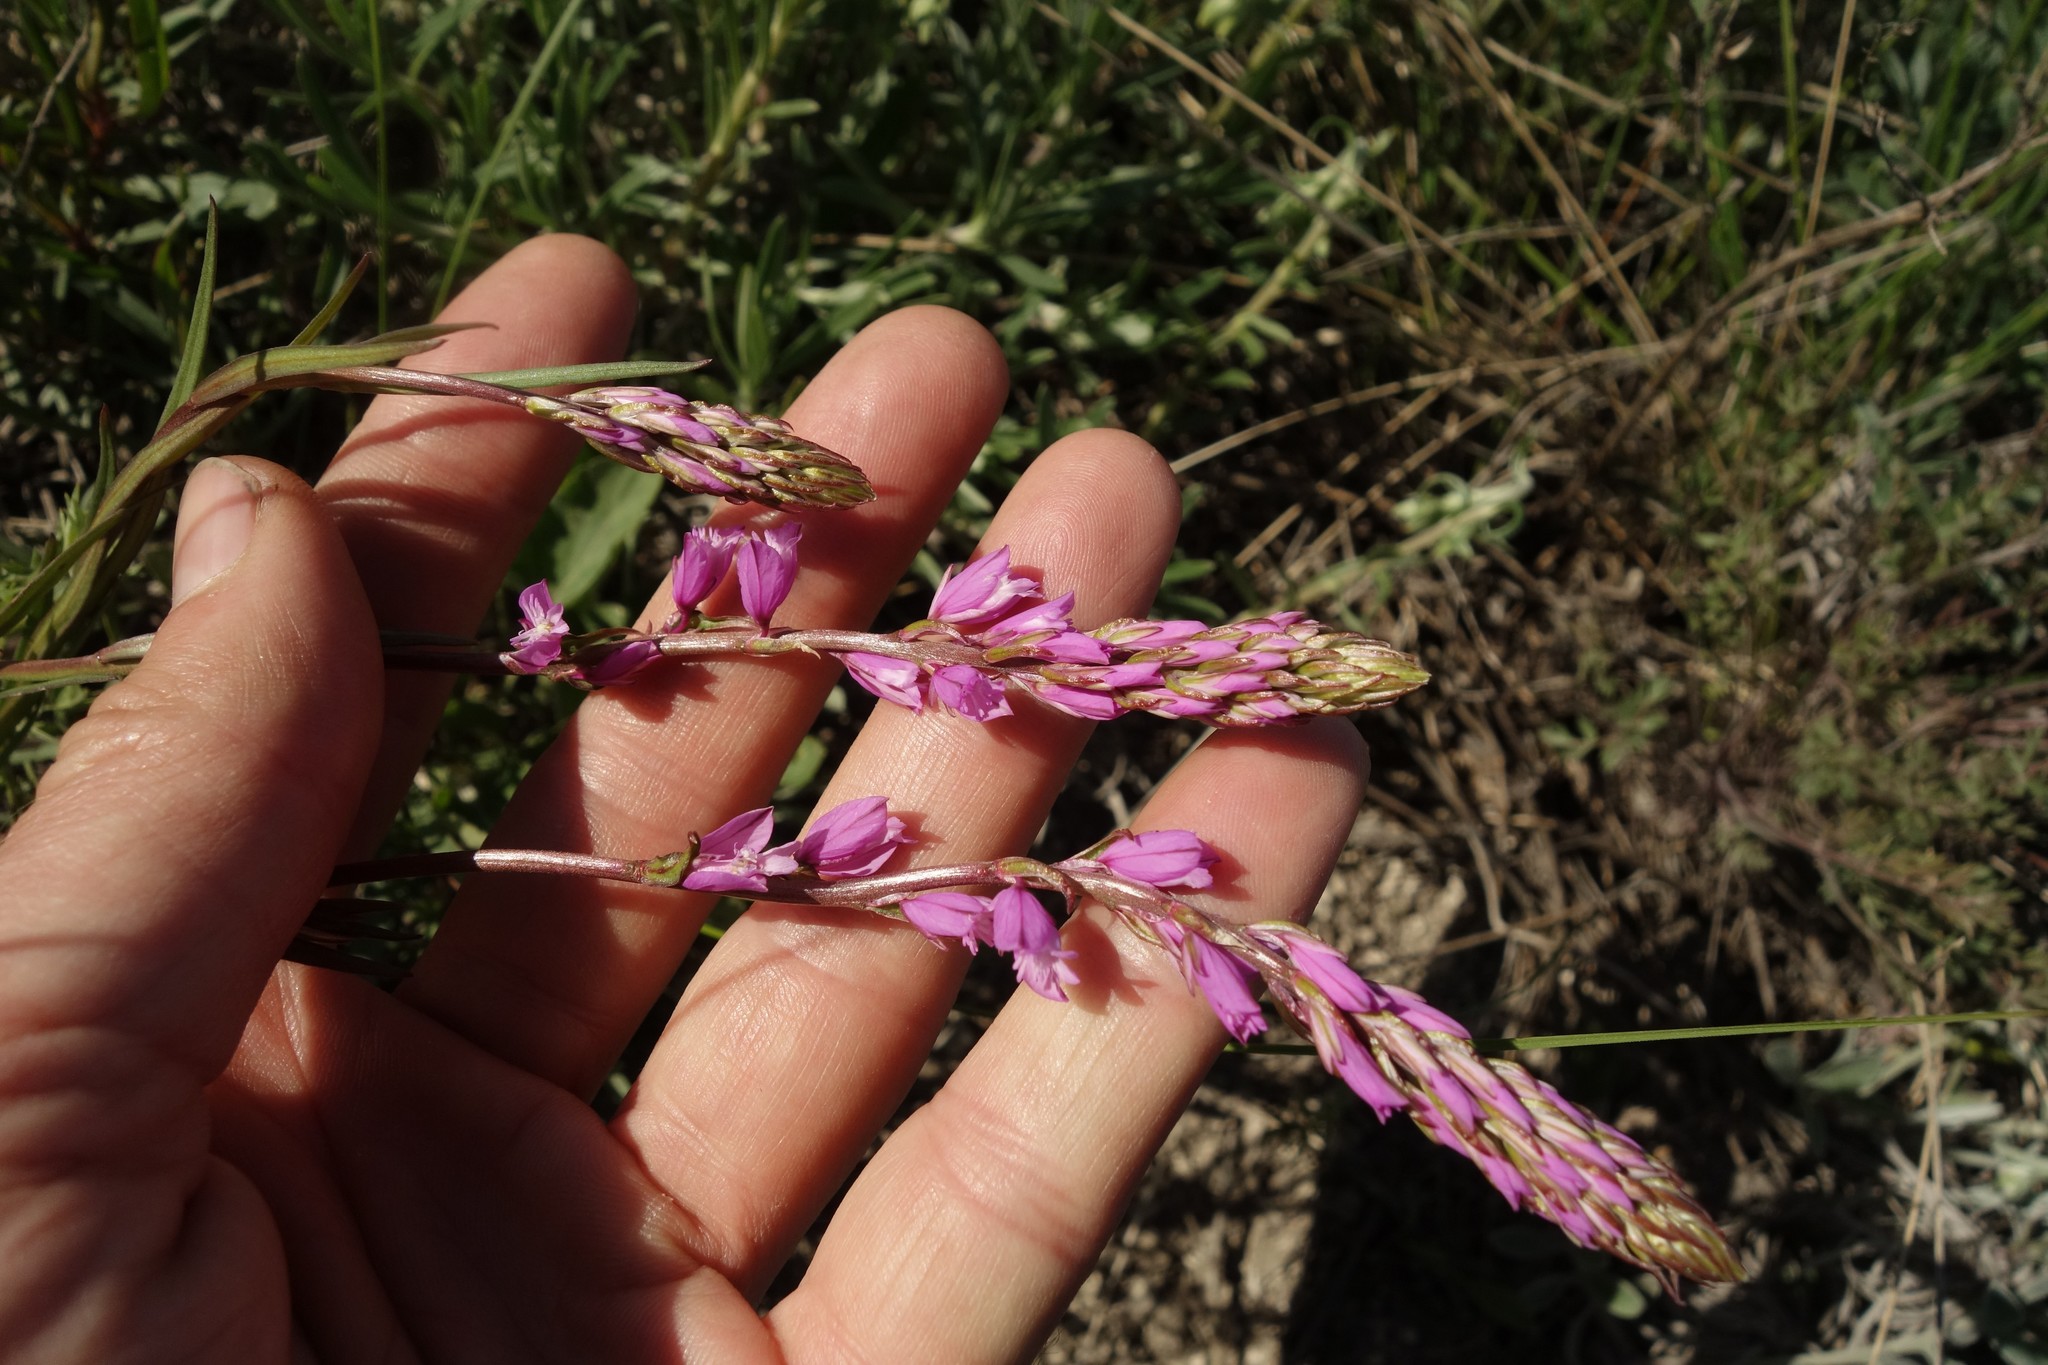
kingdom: Plantae
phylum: Tracheophyta
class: Magnoliopsida
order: Fabales
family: Polygalaceae
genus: Polygala
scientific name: Polygala nicaeensis
